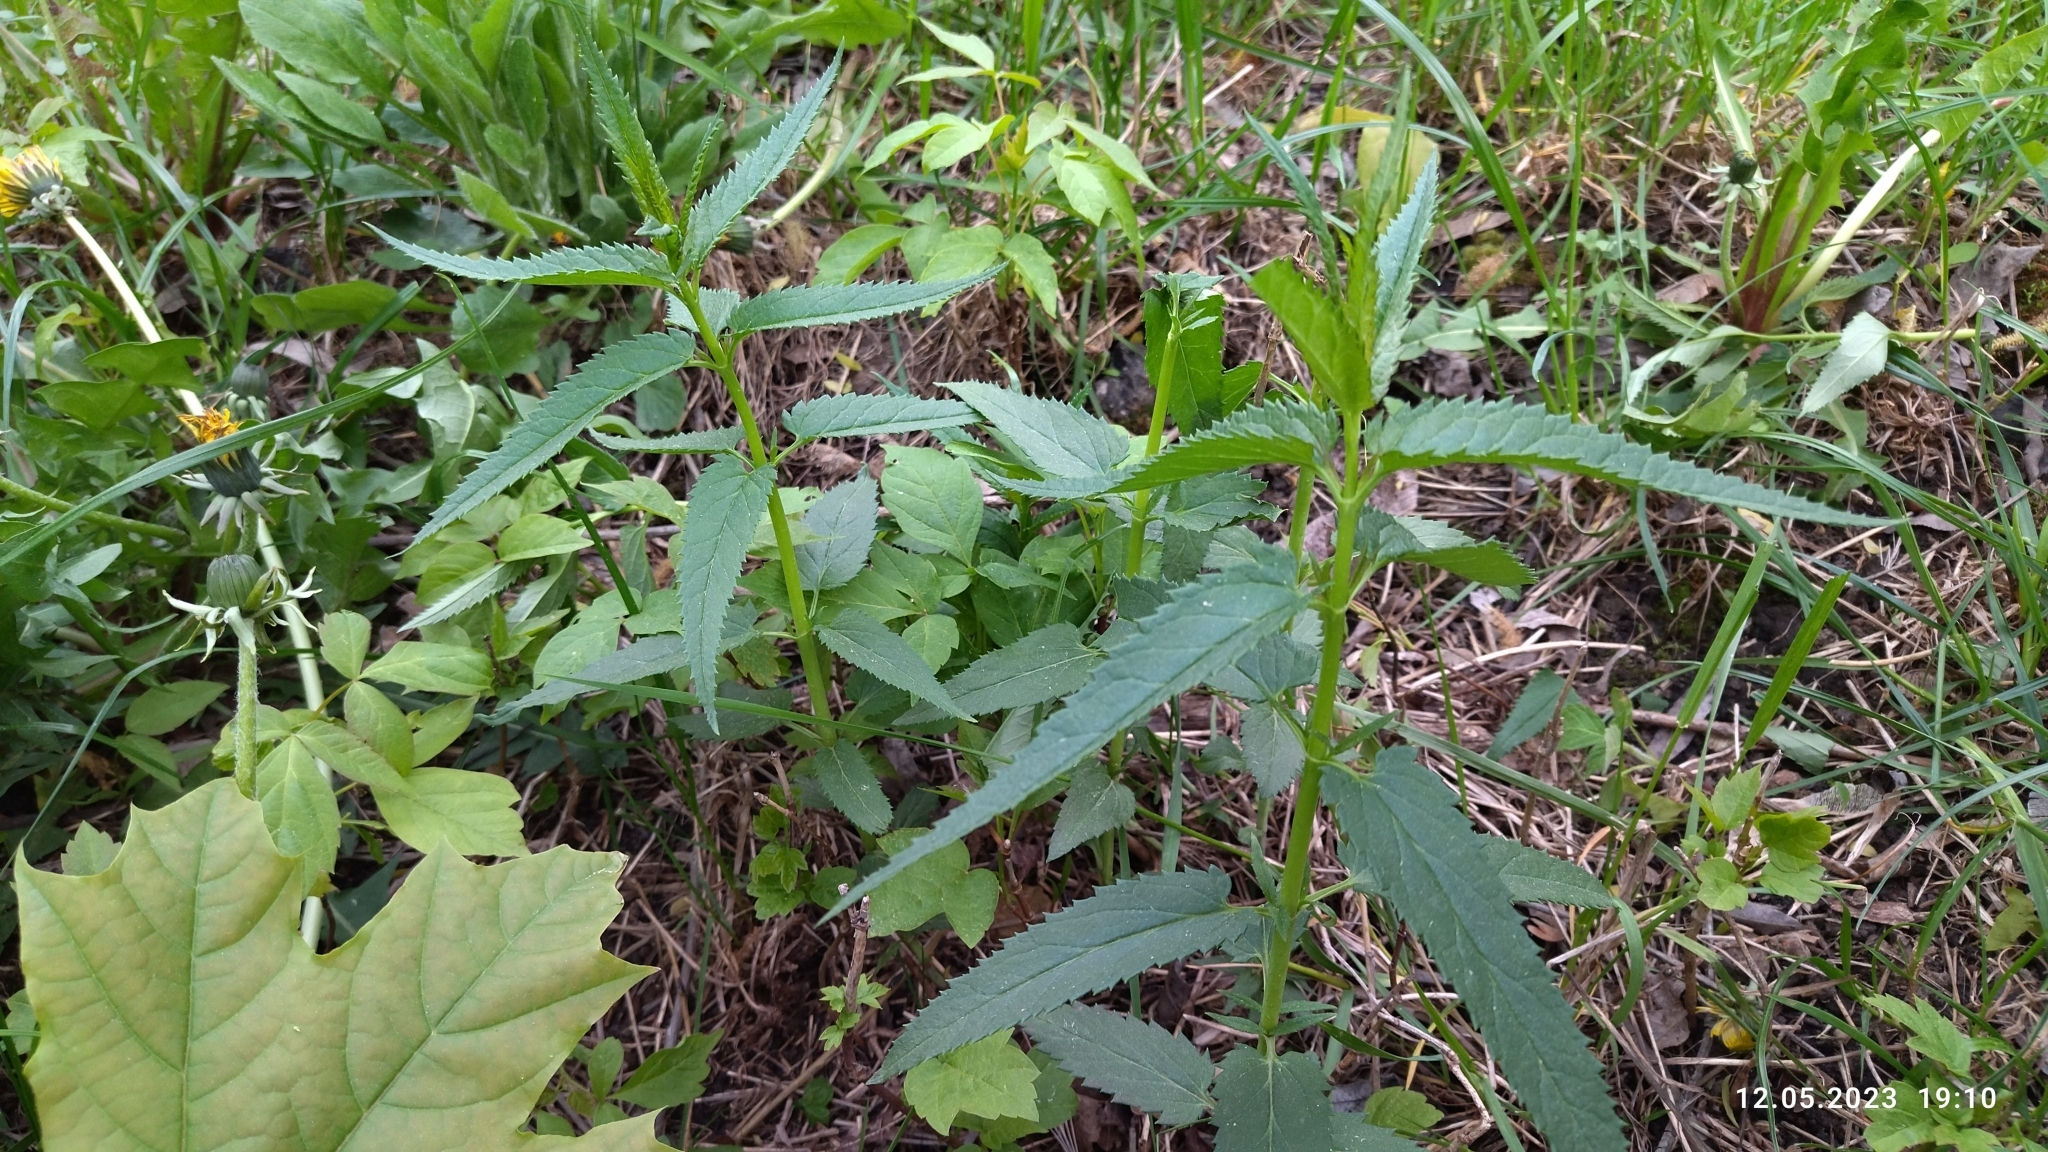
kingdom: Plantae
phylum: Tracheophyta
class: Magnoliopsida
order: Lamiales
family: Plantaginaceae
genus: Veronica
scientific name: Veronica longifolia
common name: Garden speedwell
